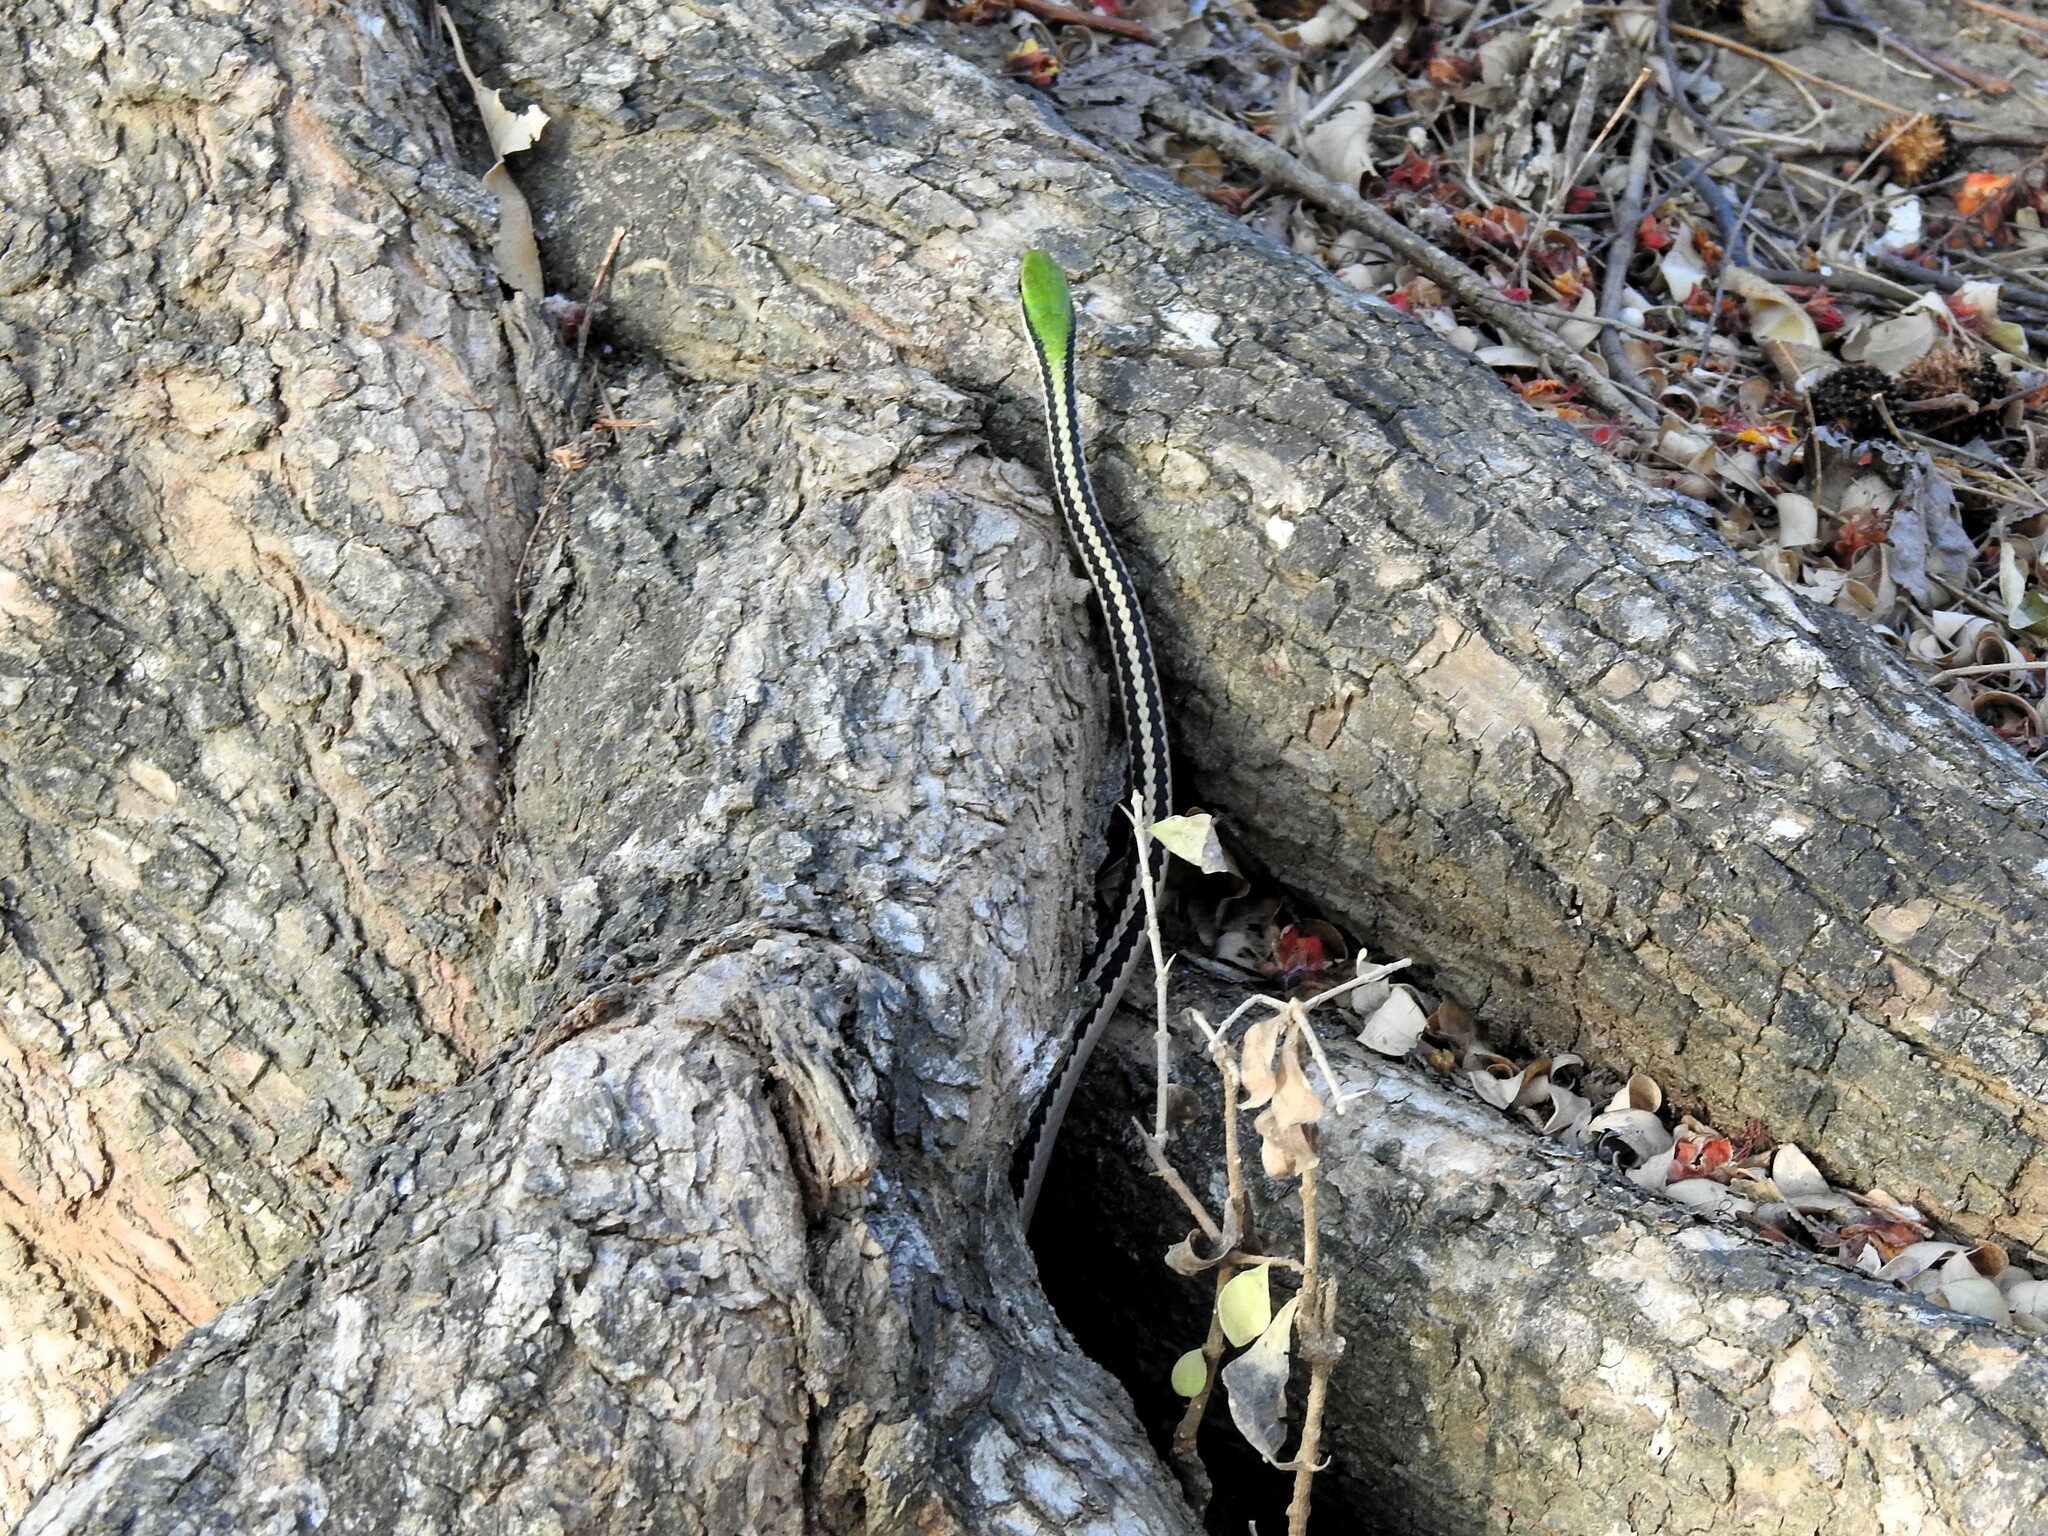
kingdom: Animalia
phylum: Chordata
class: Squamata
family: Colubridae
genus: Leptodrymus
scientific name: Leptodrymus pulcherrimus
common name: Striped lowland snake
